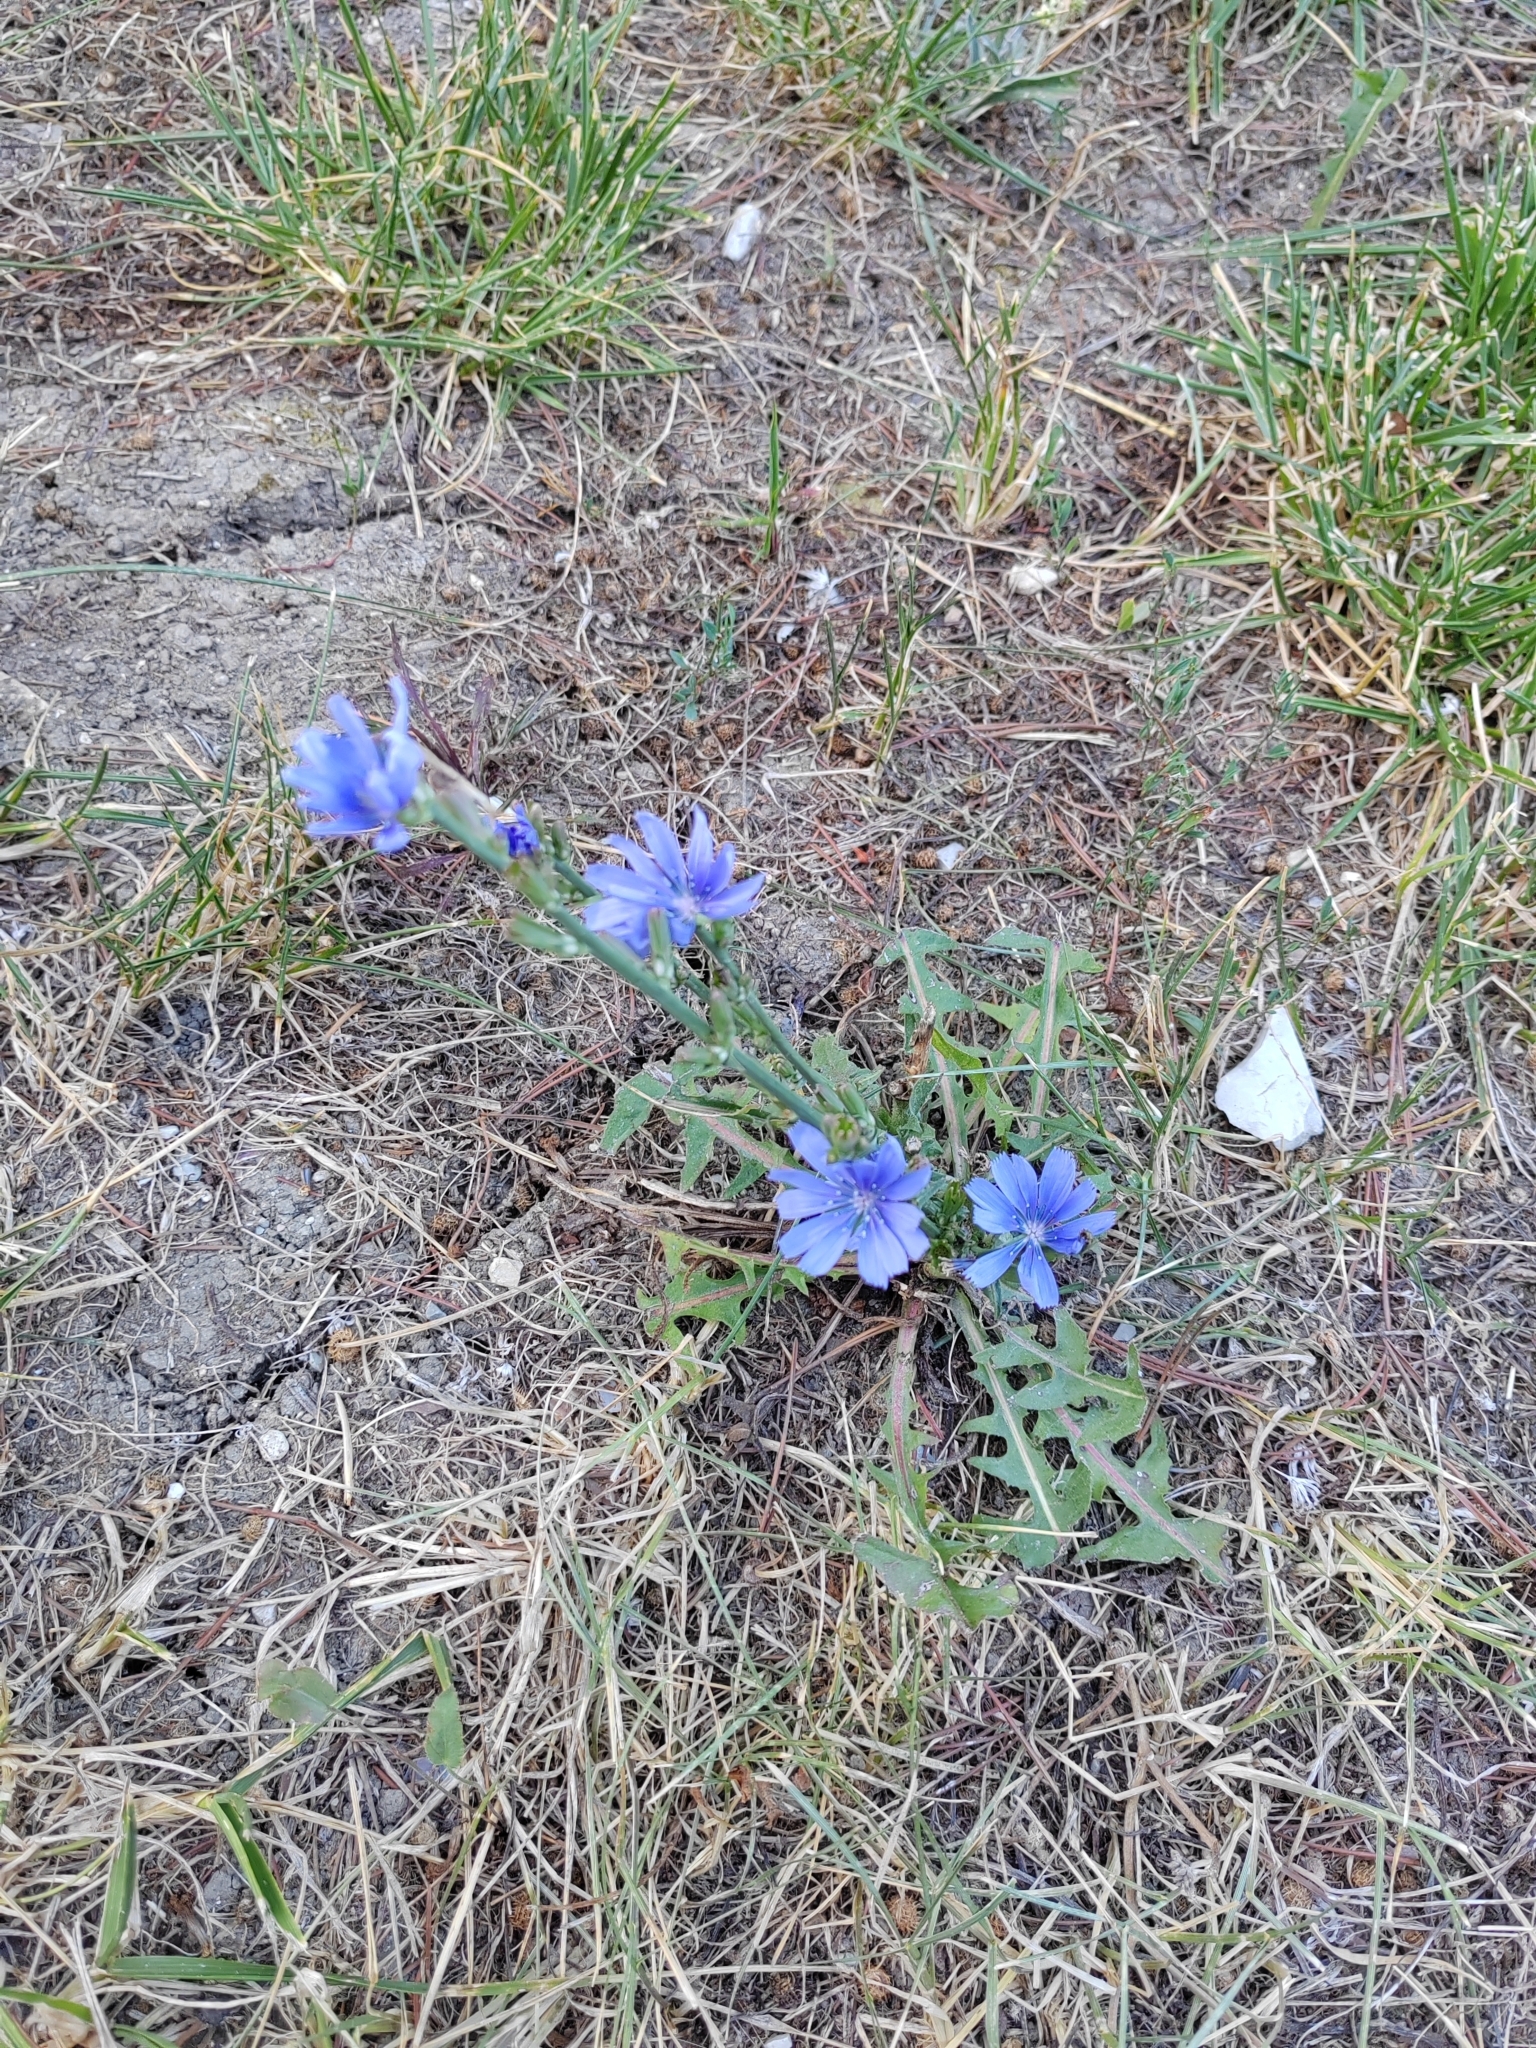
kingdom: Plantae
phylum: Tracheophyta
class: Magnoliopsida
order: Asterales
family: Asteraceae
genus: Cichorium
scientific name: Cichorium intybus
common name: Chicory
